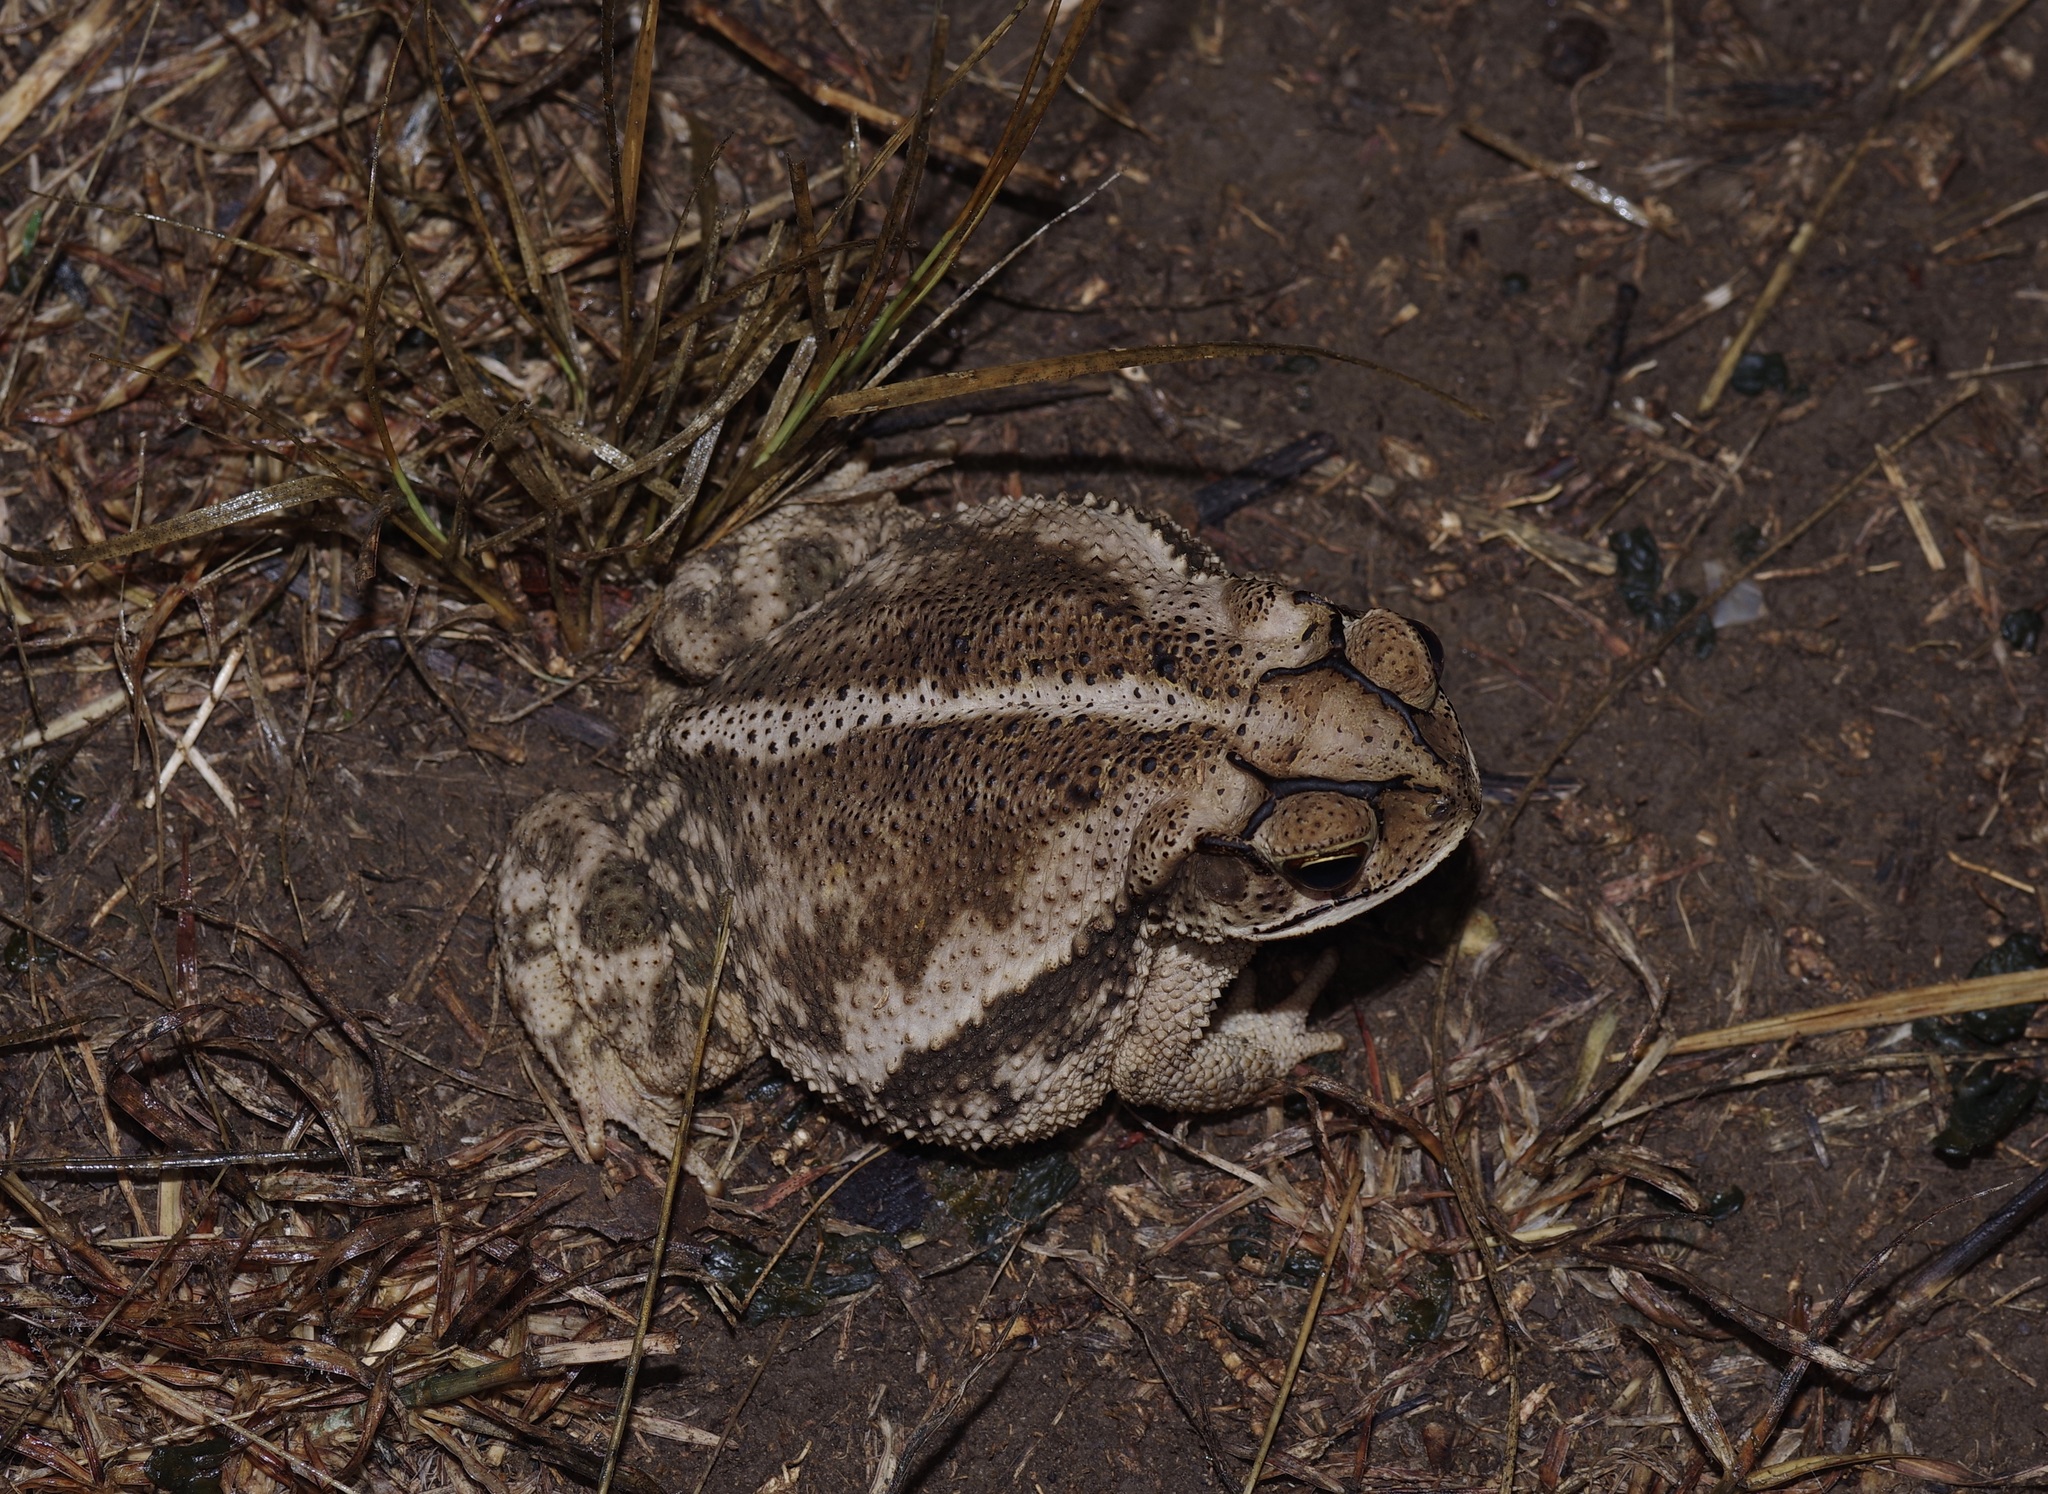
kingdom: Animalia
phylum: Chordata
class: Amphibia
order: Anura
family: Bufonidae
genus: Incilius
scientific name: Incilius nebulifer
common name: Gulf coast toad
